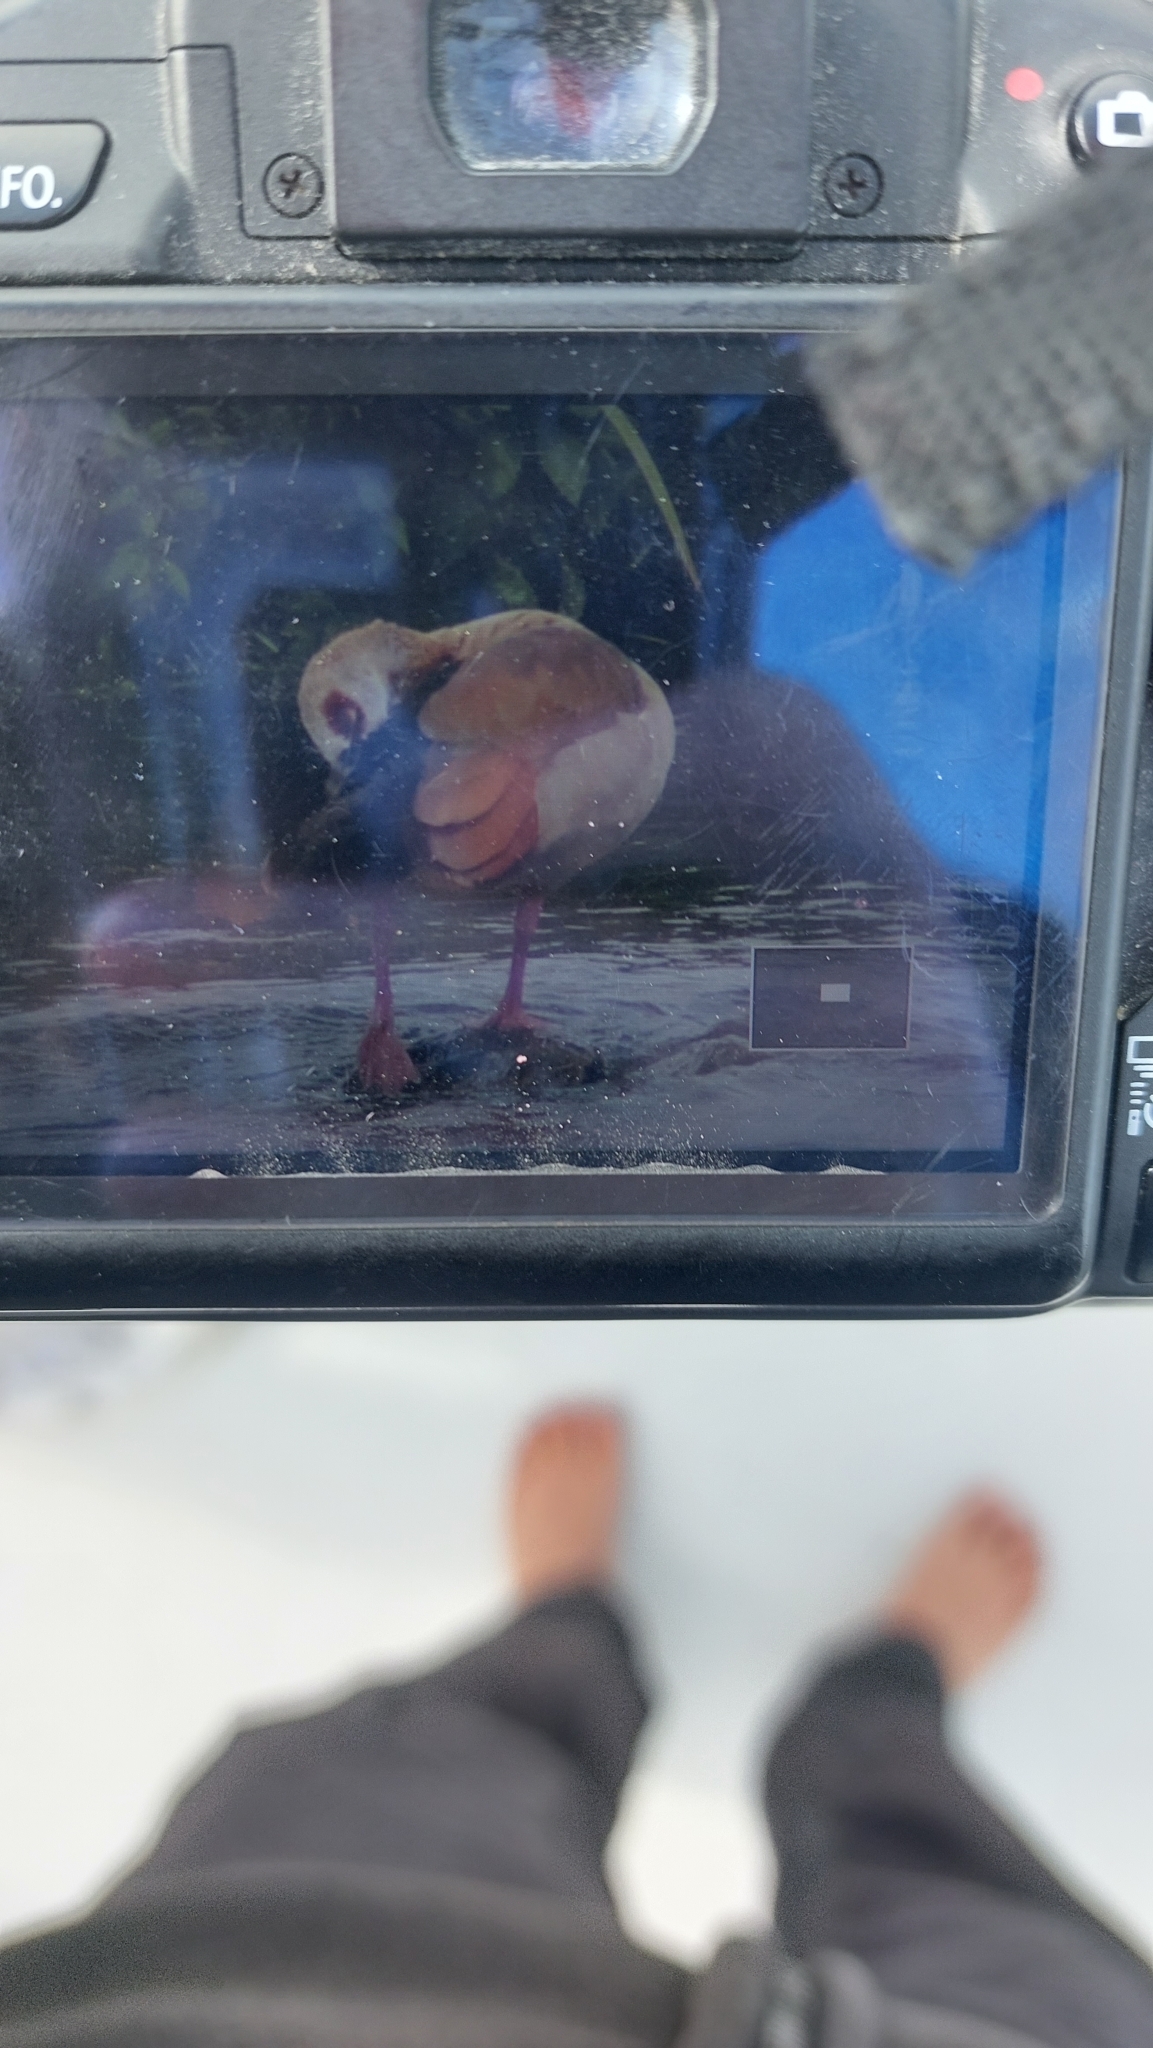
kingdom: Animalia
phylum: Chordata
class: Aves
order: Anseriformes
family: Anatidae
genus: Alopochen
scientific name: Alopochen aegyptiaca
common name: Egyptian goose
